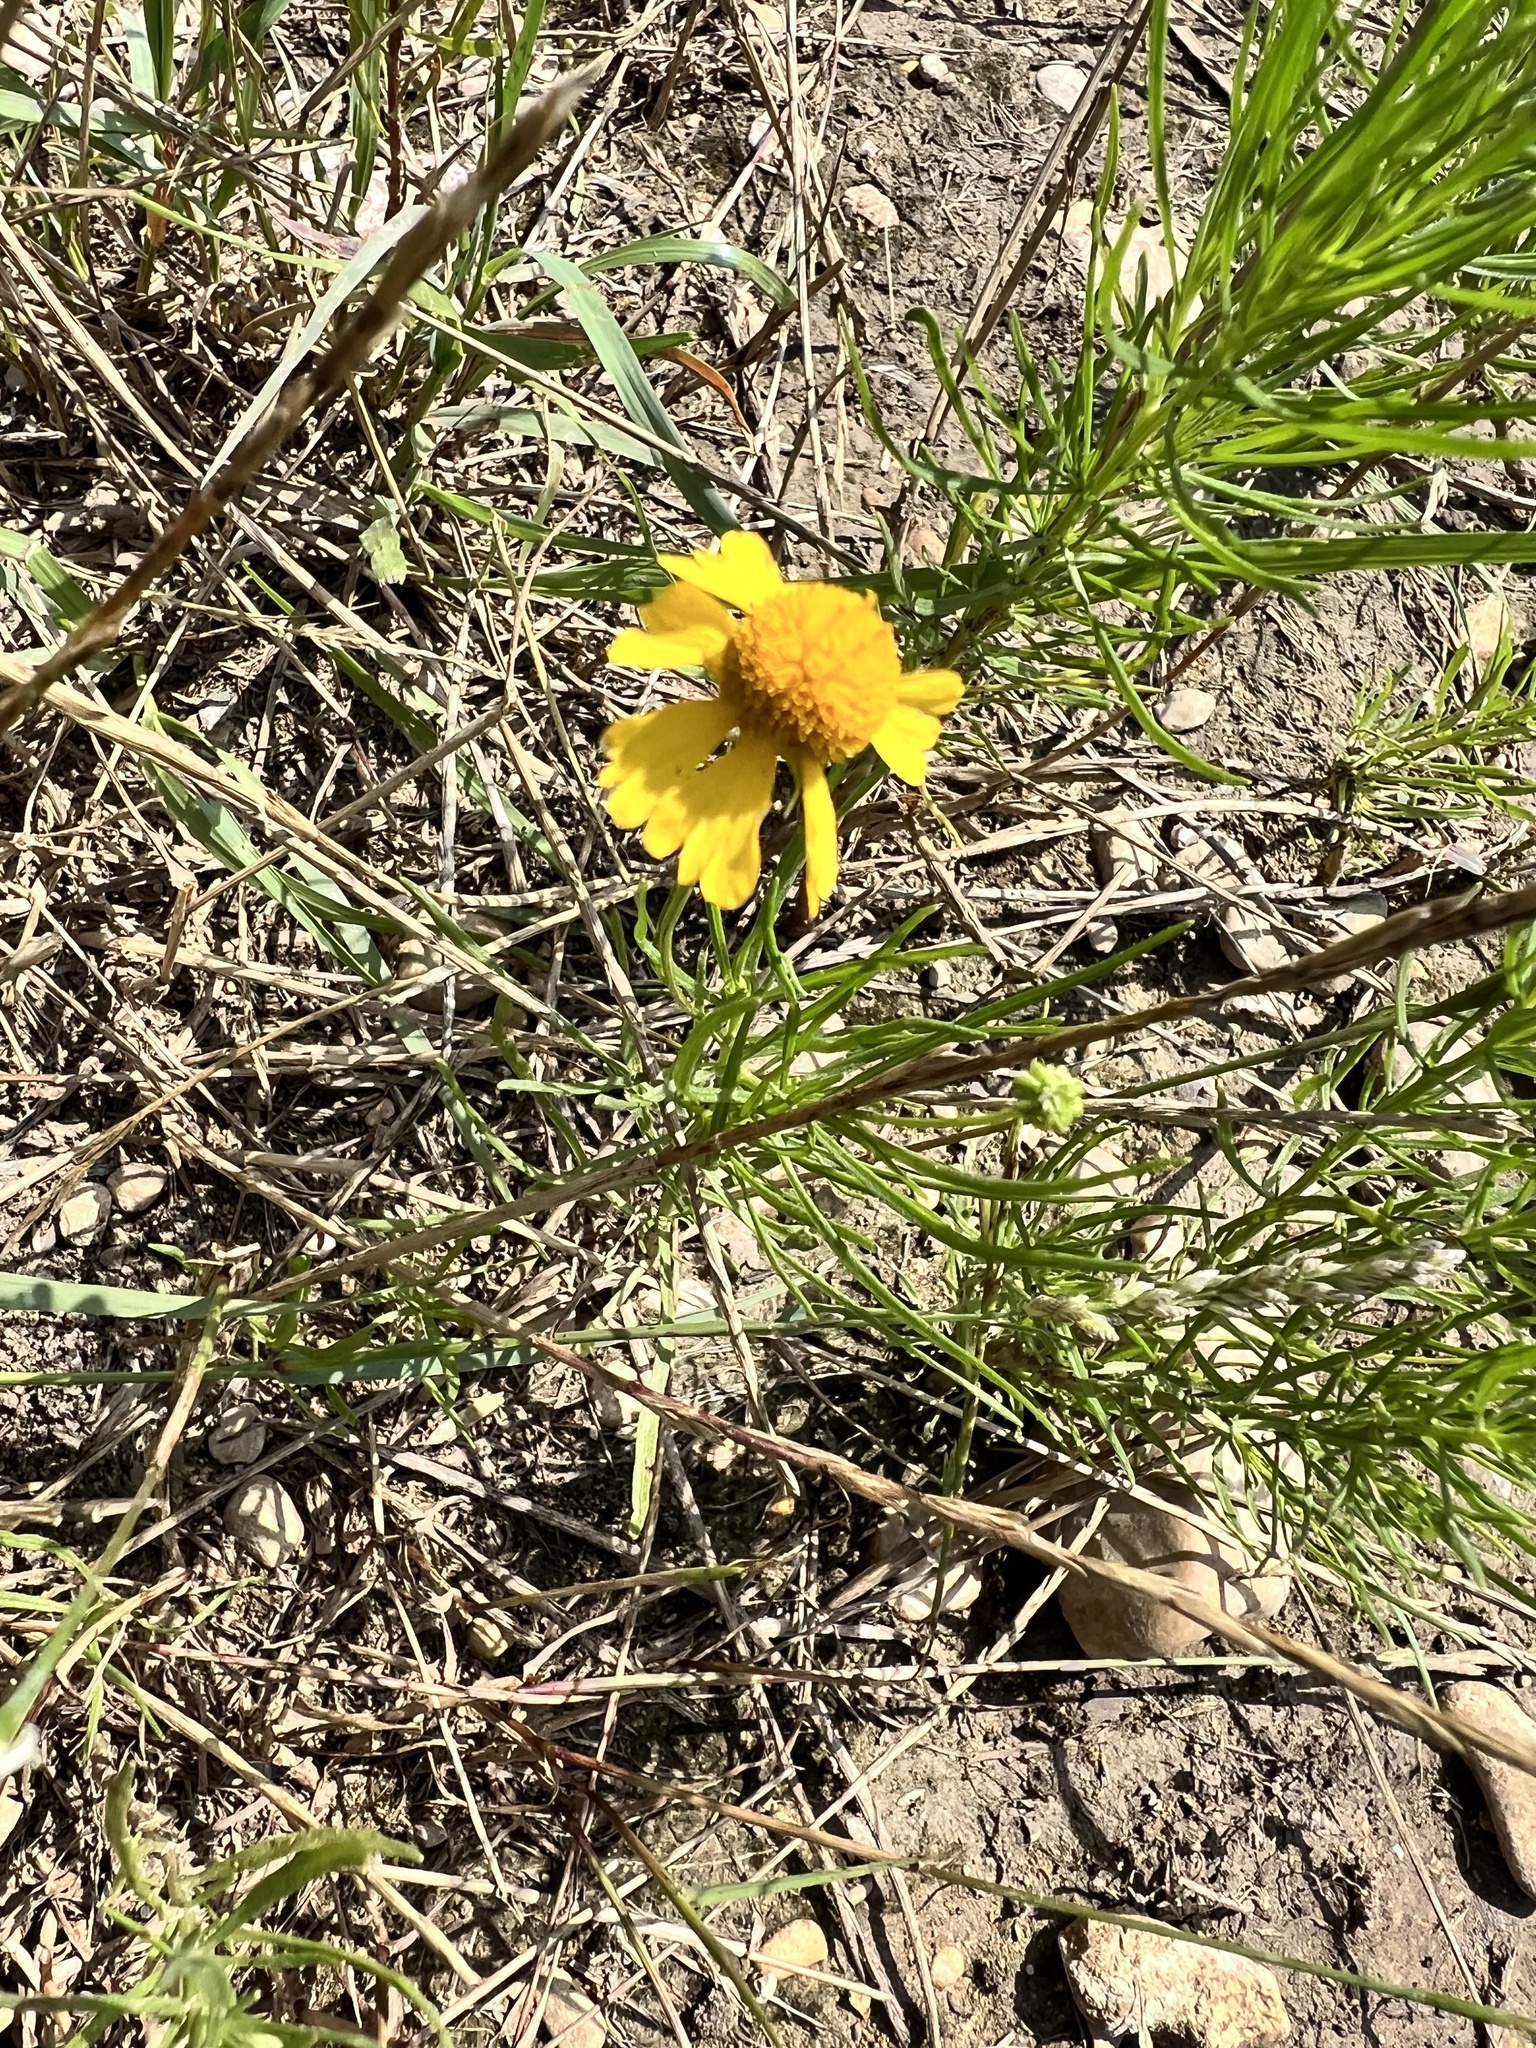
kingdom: Plantae
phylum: Tracheophyta
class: Magnoliopsida
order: Asterales
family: Asteraceae
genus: Helenium
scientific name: Helenium amarum
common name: Bitter sneezeweed
